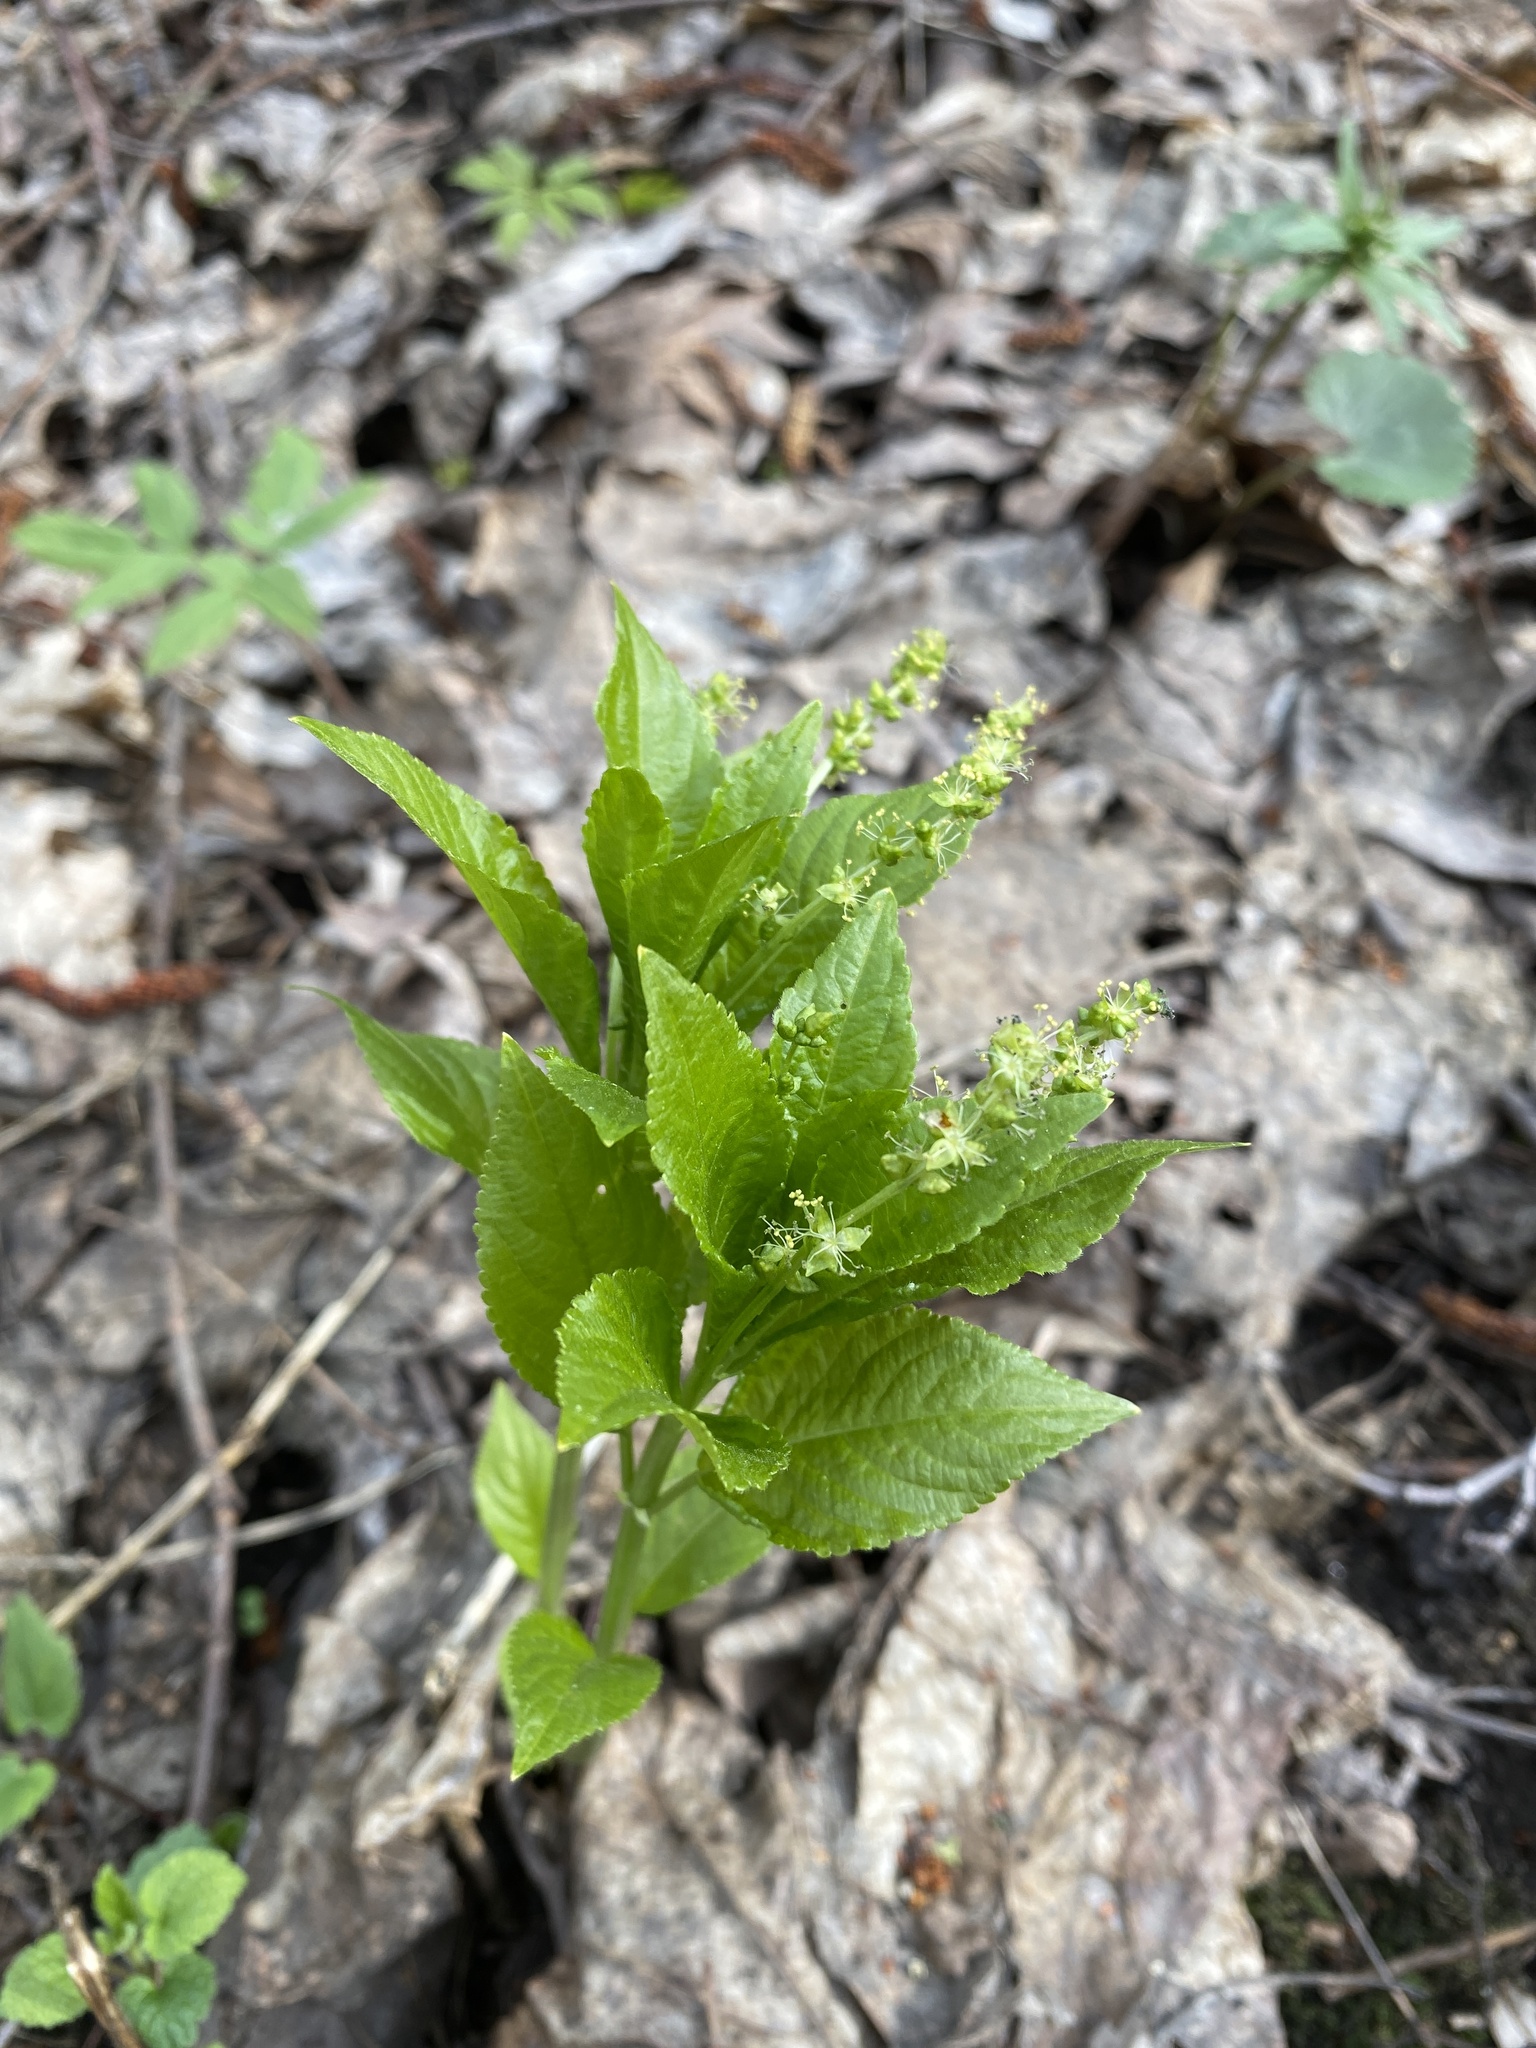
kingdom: Plantae
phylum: Tracheophyta
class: Magnoliopsida
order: Malpighiales
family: Euphorbiaceae
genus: Mercurialis
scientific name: Mercurialis perennis
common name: Dog mercury
